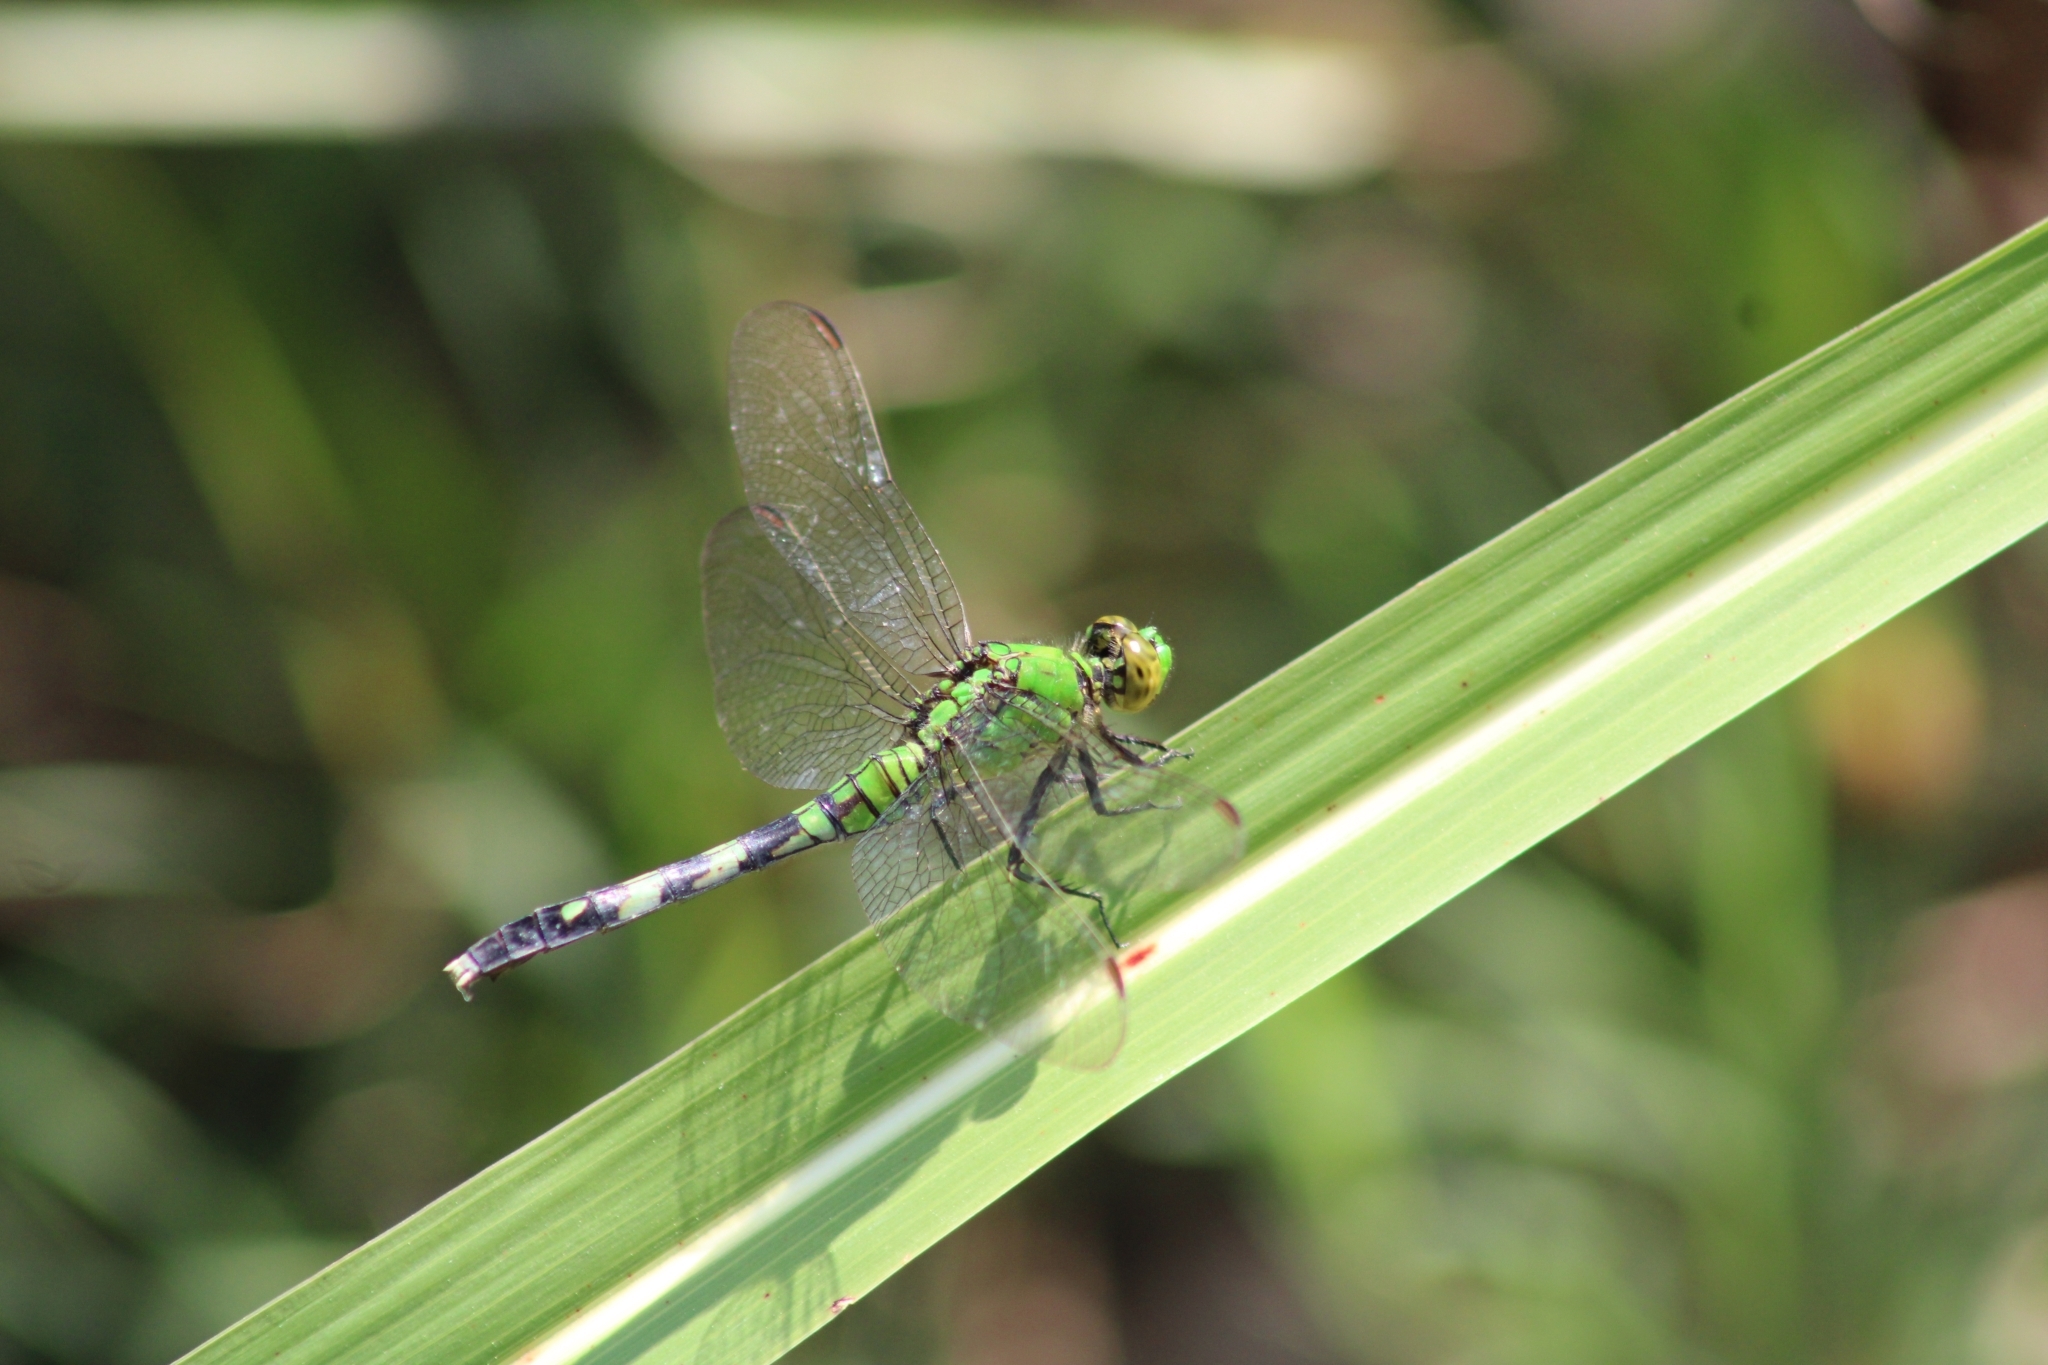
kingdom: Animalia
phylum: Arthropoda
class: Insecta
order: Odonata
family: Libellulidae
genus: Erythemis
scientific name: Erythemis simplicicollis
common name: Eastern pondhawk
